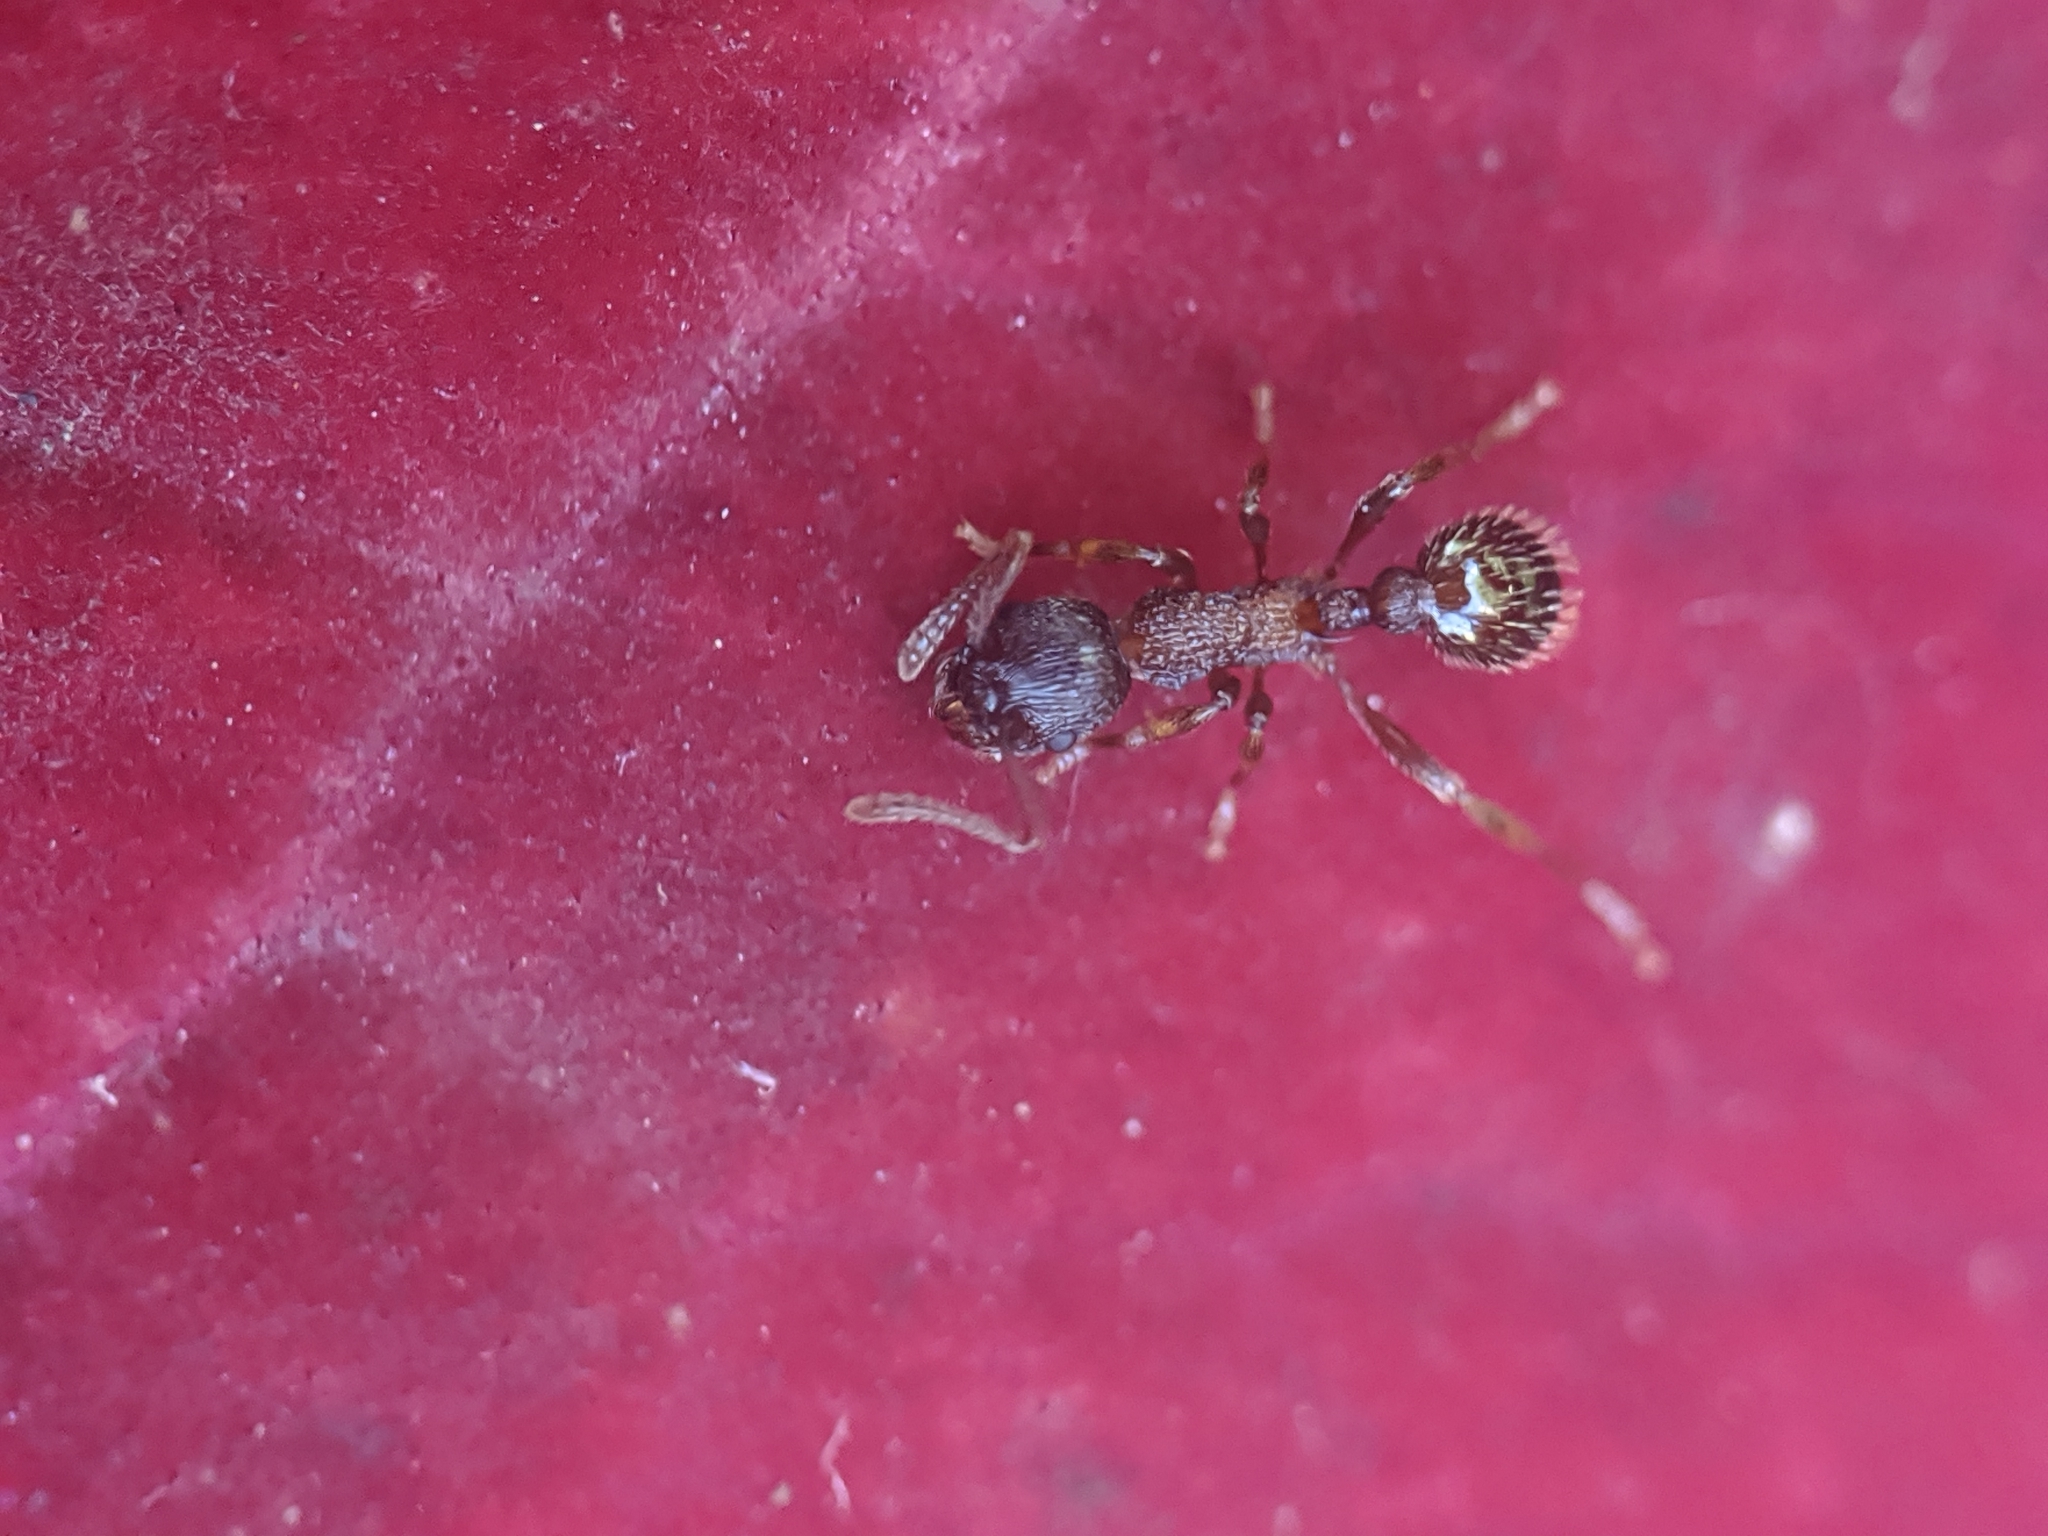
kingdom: Animalia
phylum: Arthropoda
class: Insecta
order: Hymenoptera
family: Formicidae
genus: Myrmica
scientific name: Myrmica
